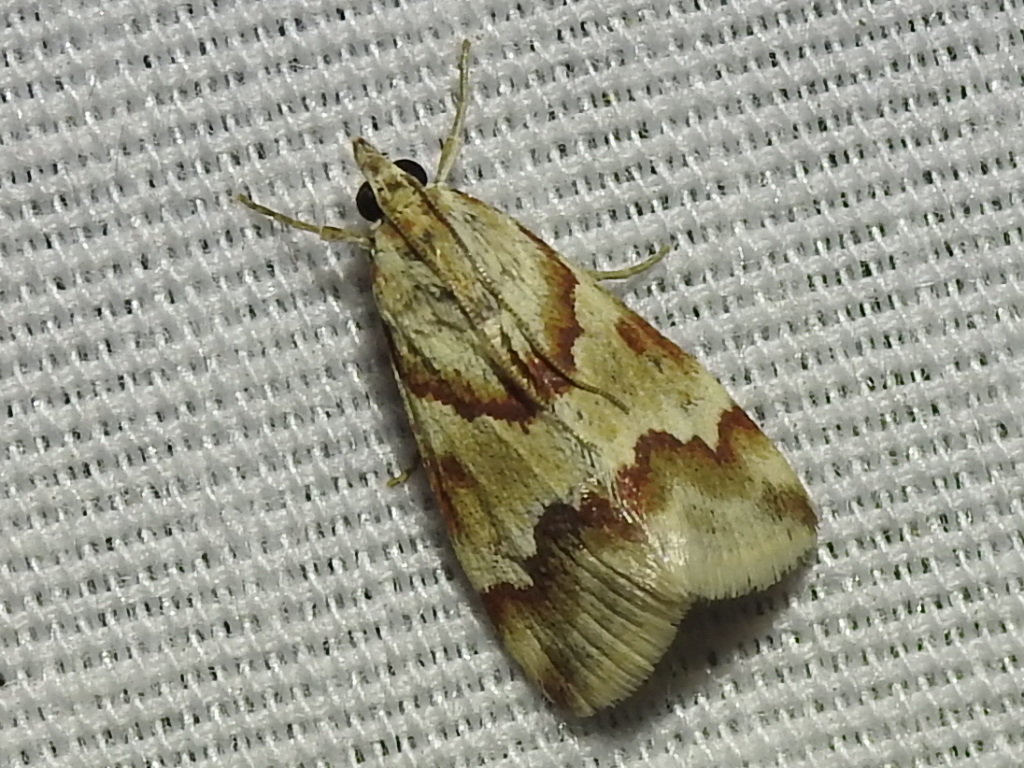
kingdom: Animalia
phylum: Arthropoda
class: Insecta
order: Lepidoptera
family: Crambidae
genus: Noctuelia
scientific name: Noctuelia Mimoschinia rufofascialis
